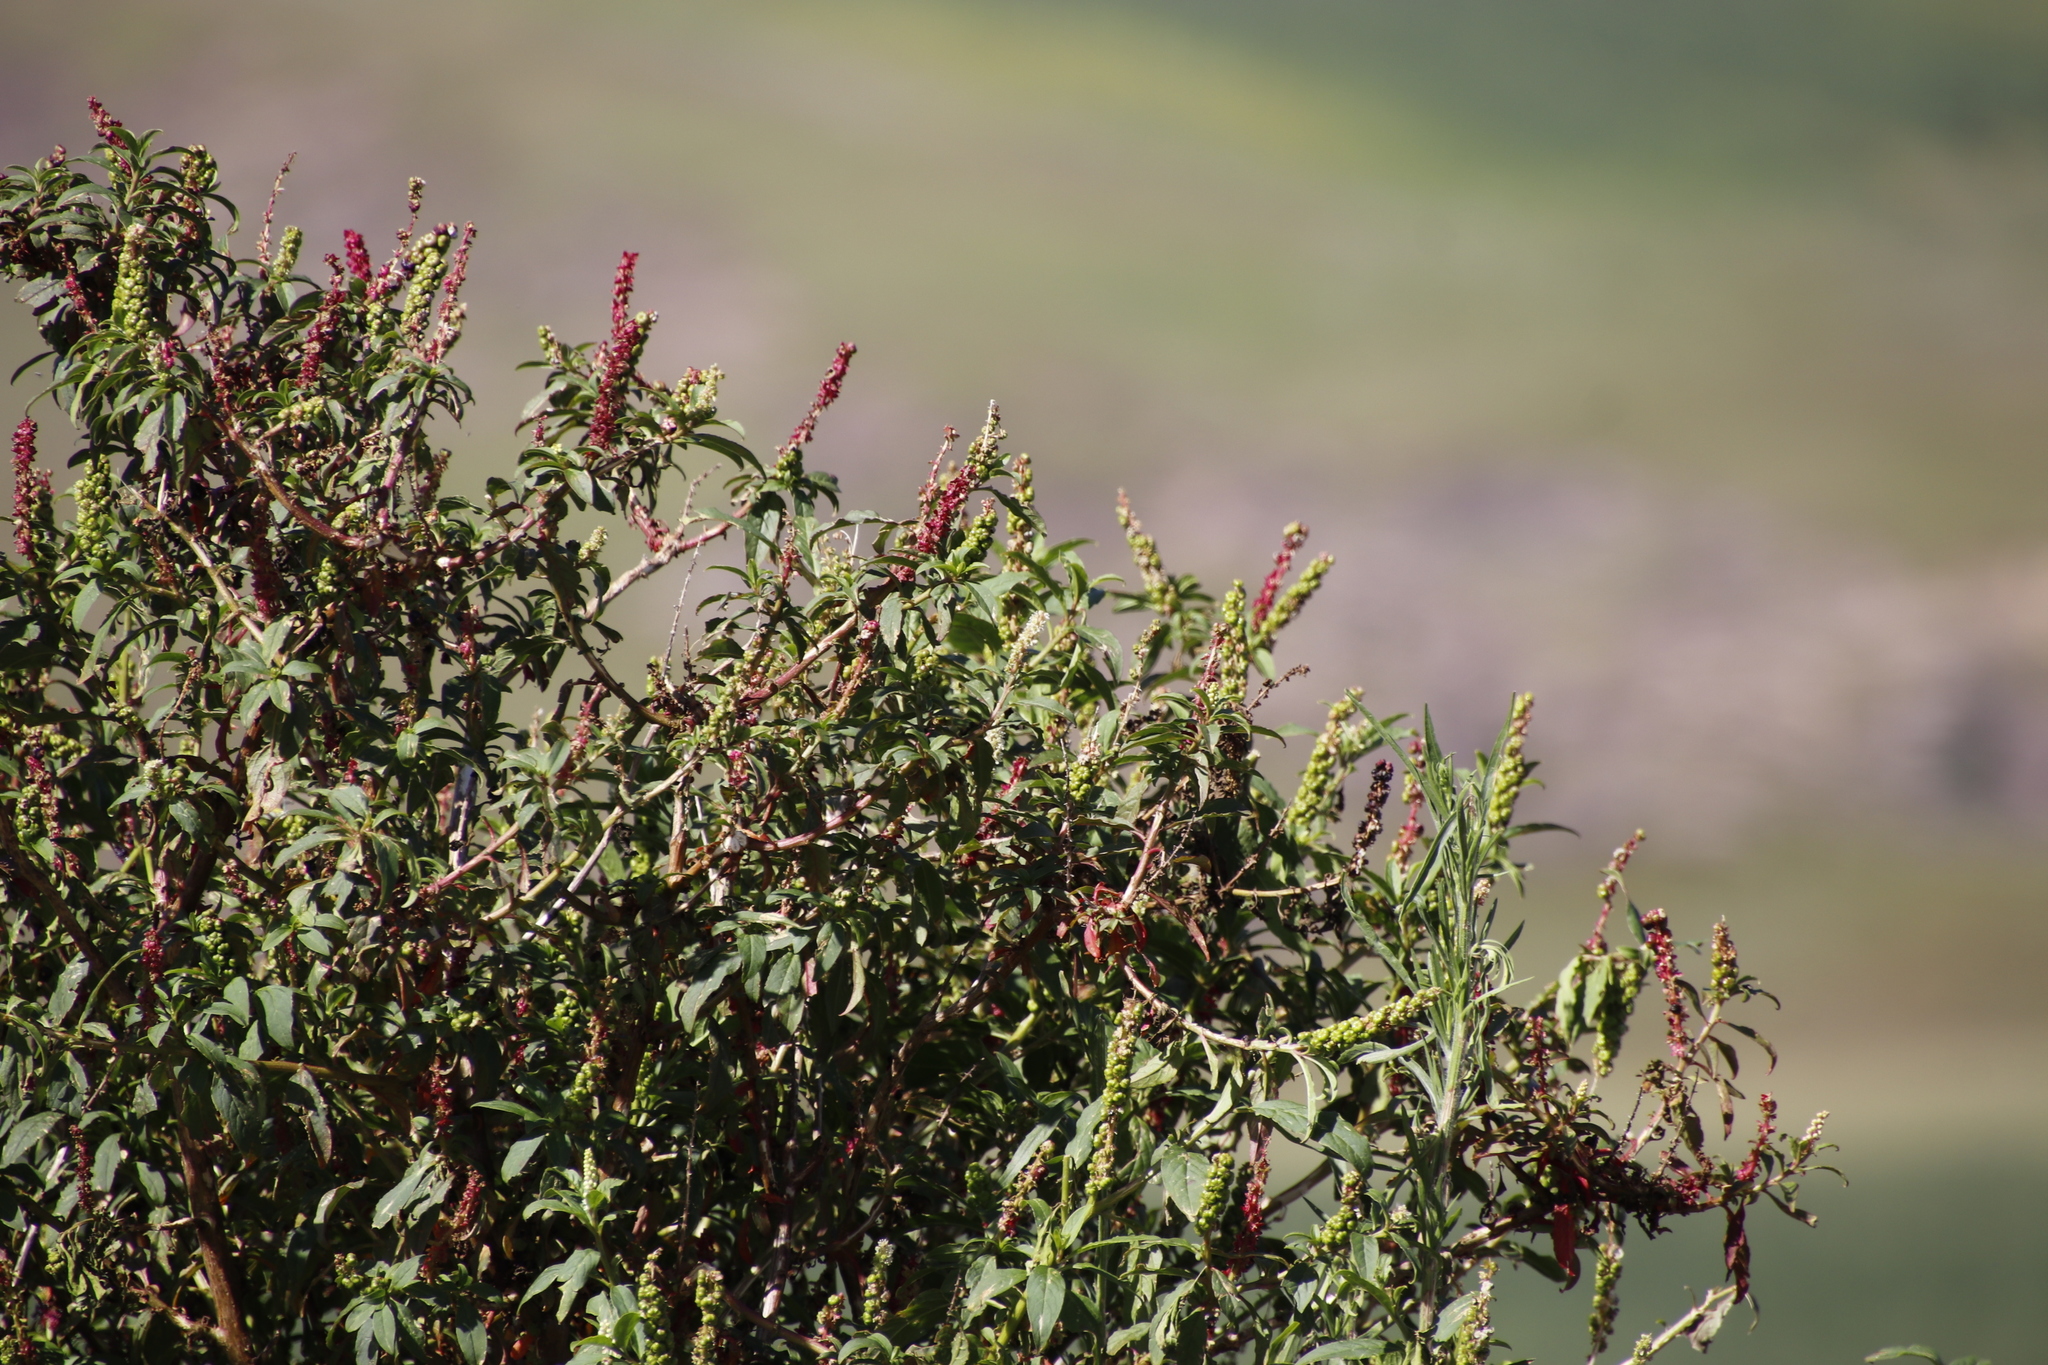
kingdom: Plantae
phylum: Tracheophyta
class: Magnoliopsida
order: Caryophyllales
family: Phytolaccaceae
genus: Phytolacca
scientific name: Phytolacca icosandra
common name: Button pokeweed
